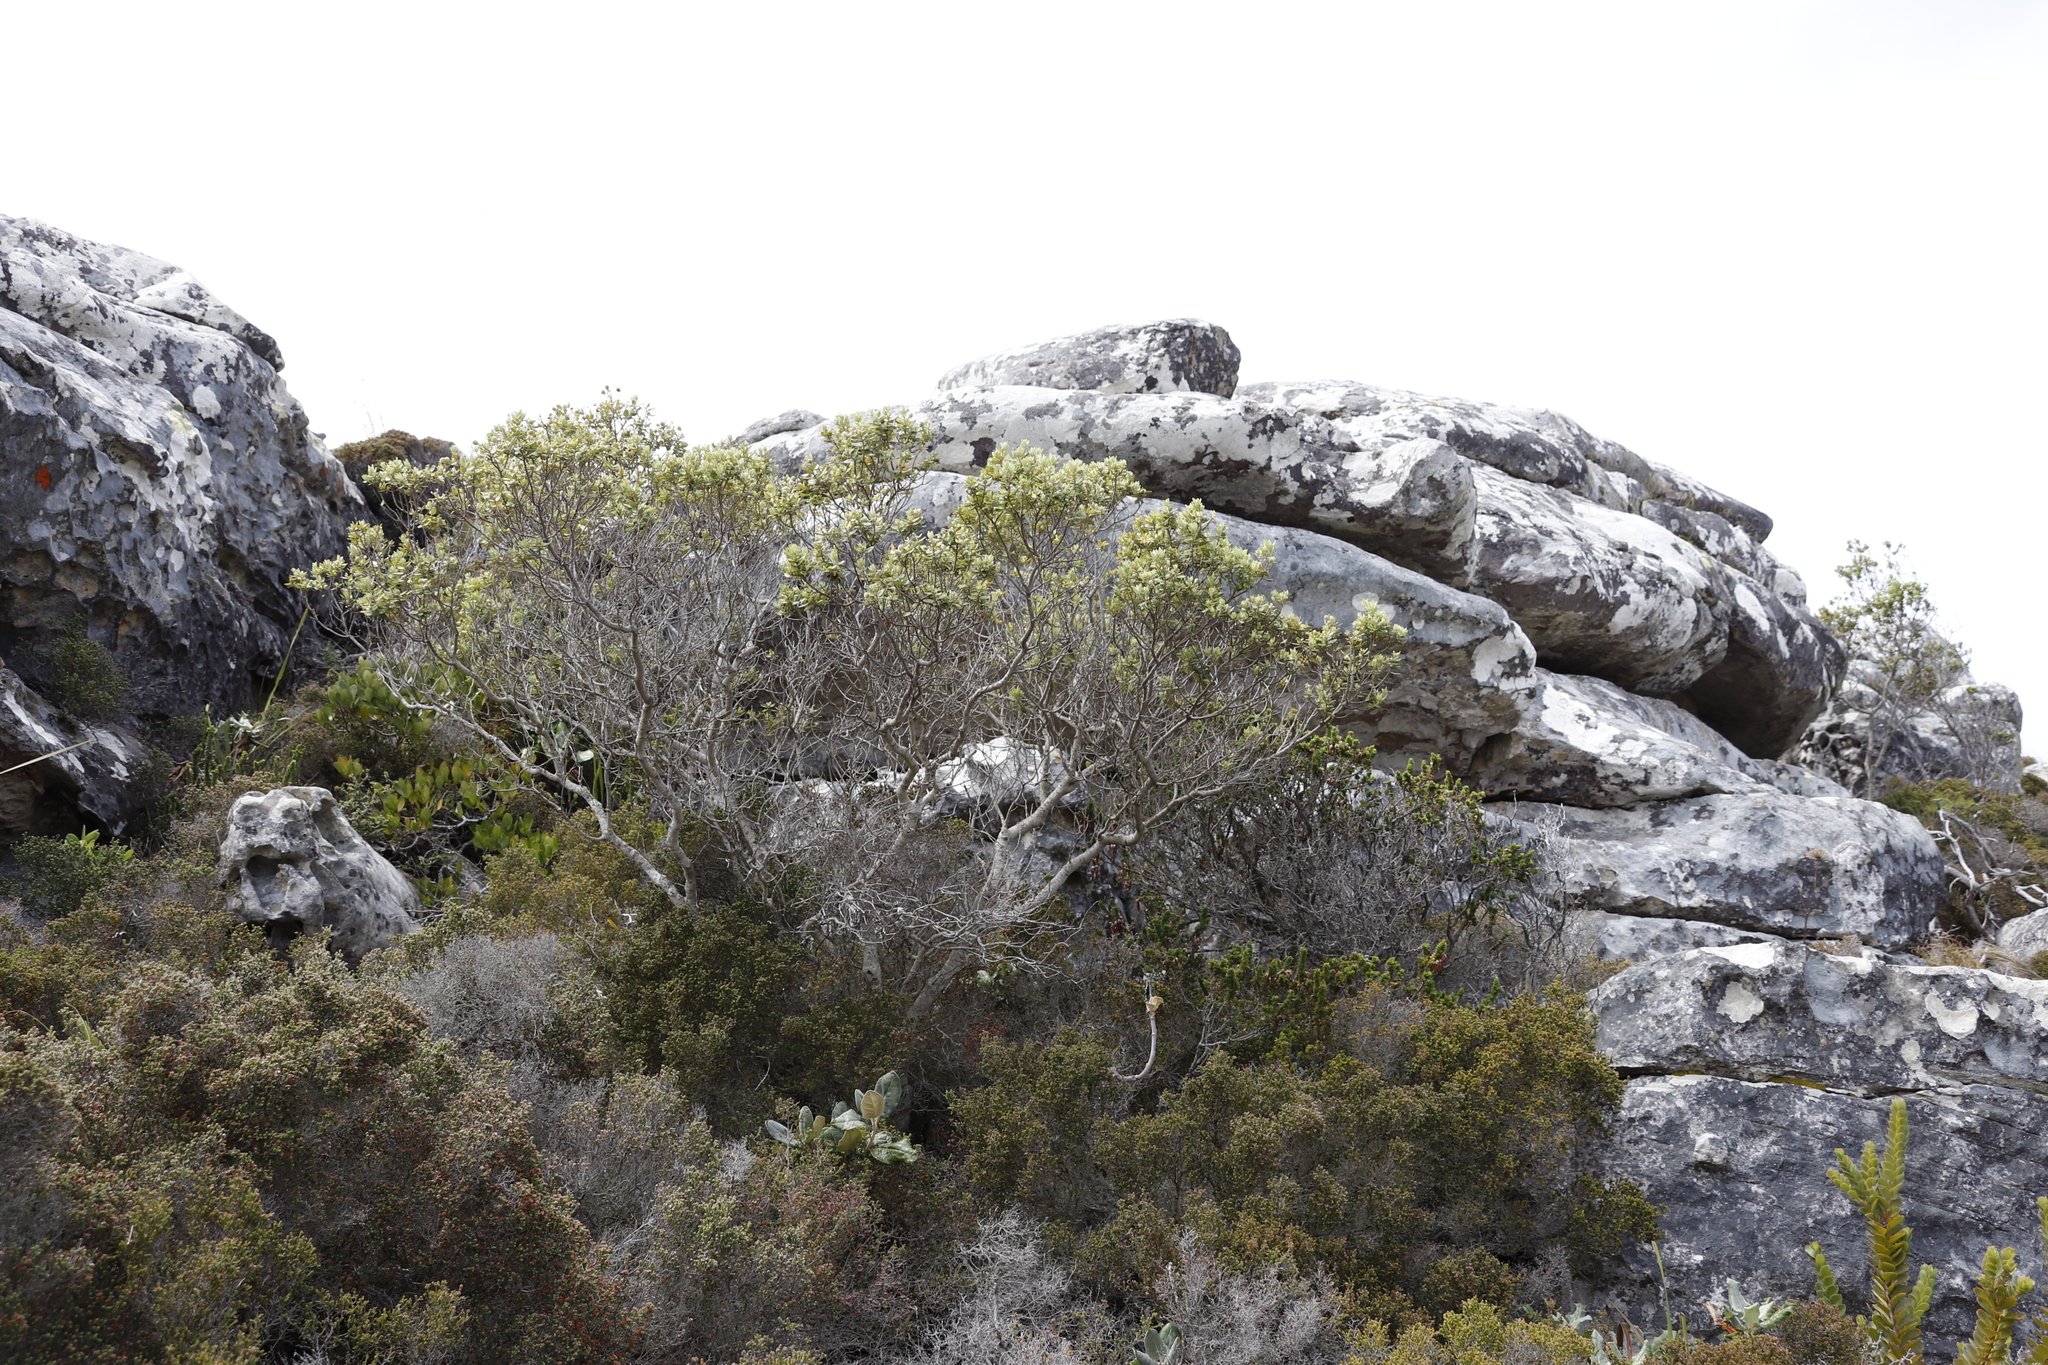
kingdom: Plantae
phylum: Tracheophyta
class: Magnoliopsida
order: Rosales
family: Rhamnaceae
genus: Phylica
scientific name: Phylica buxifolia
